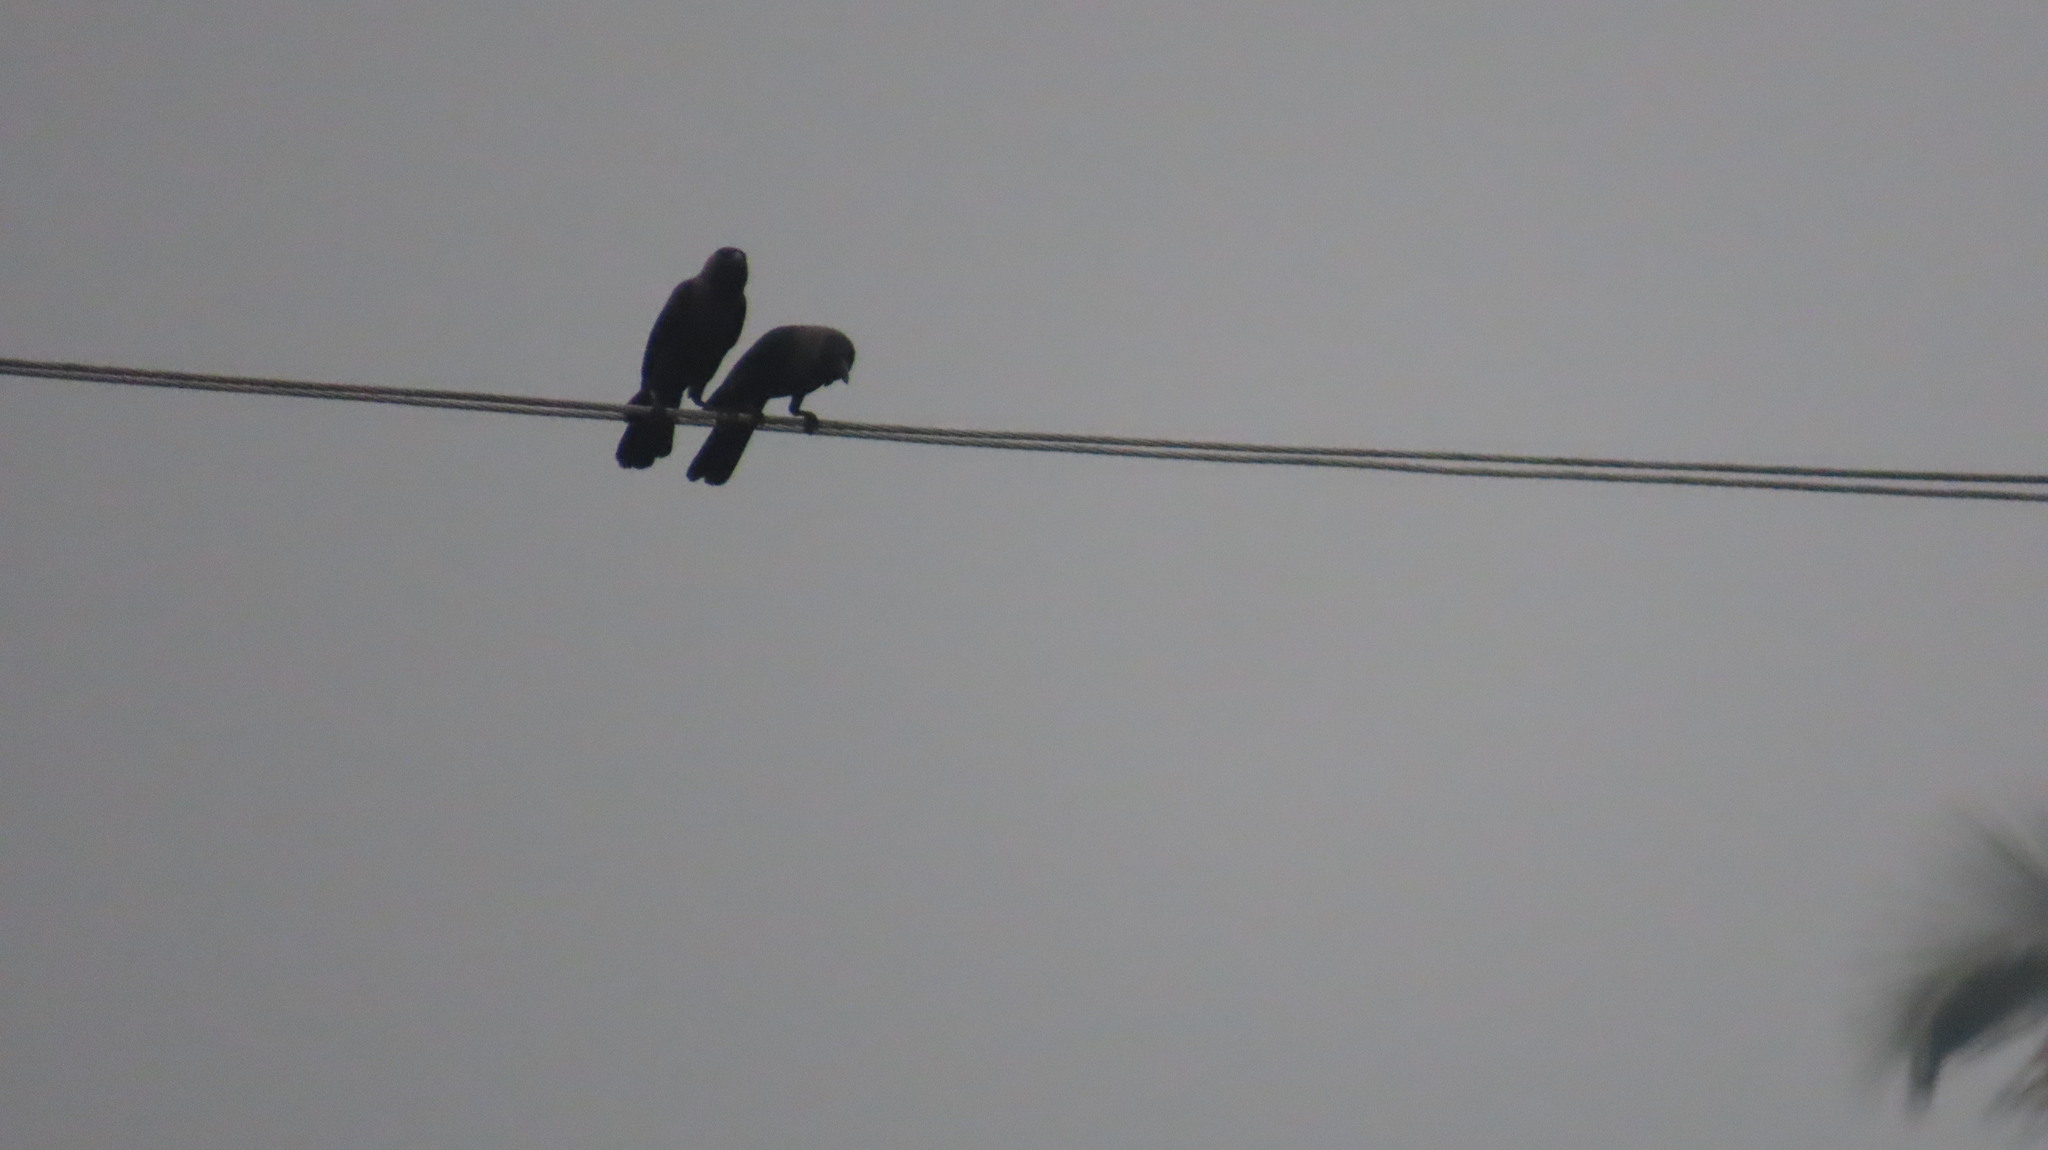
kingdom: Animalia
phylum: Chordata
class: Aves
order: Passeriformes
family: Corvidae
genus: Corvus
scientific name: Corvus splendens
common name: House crow
